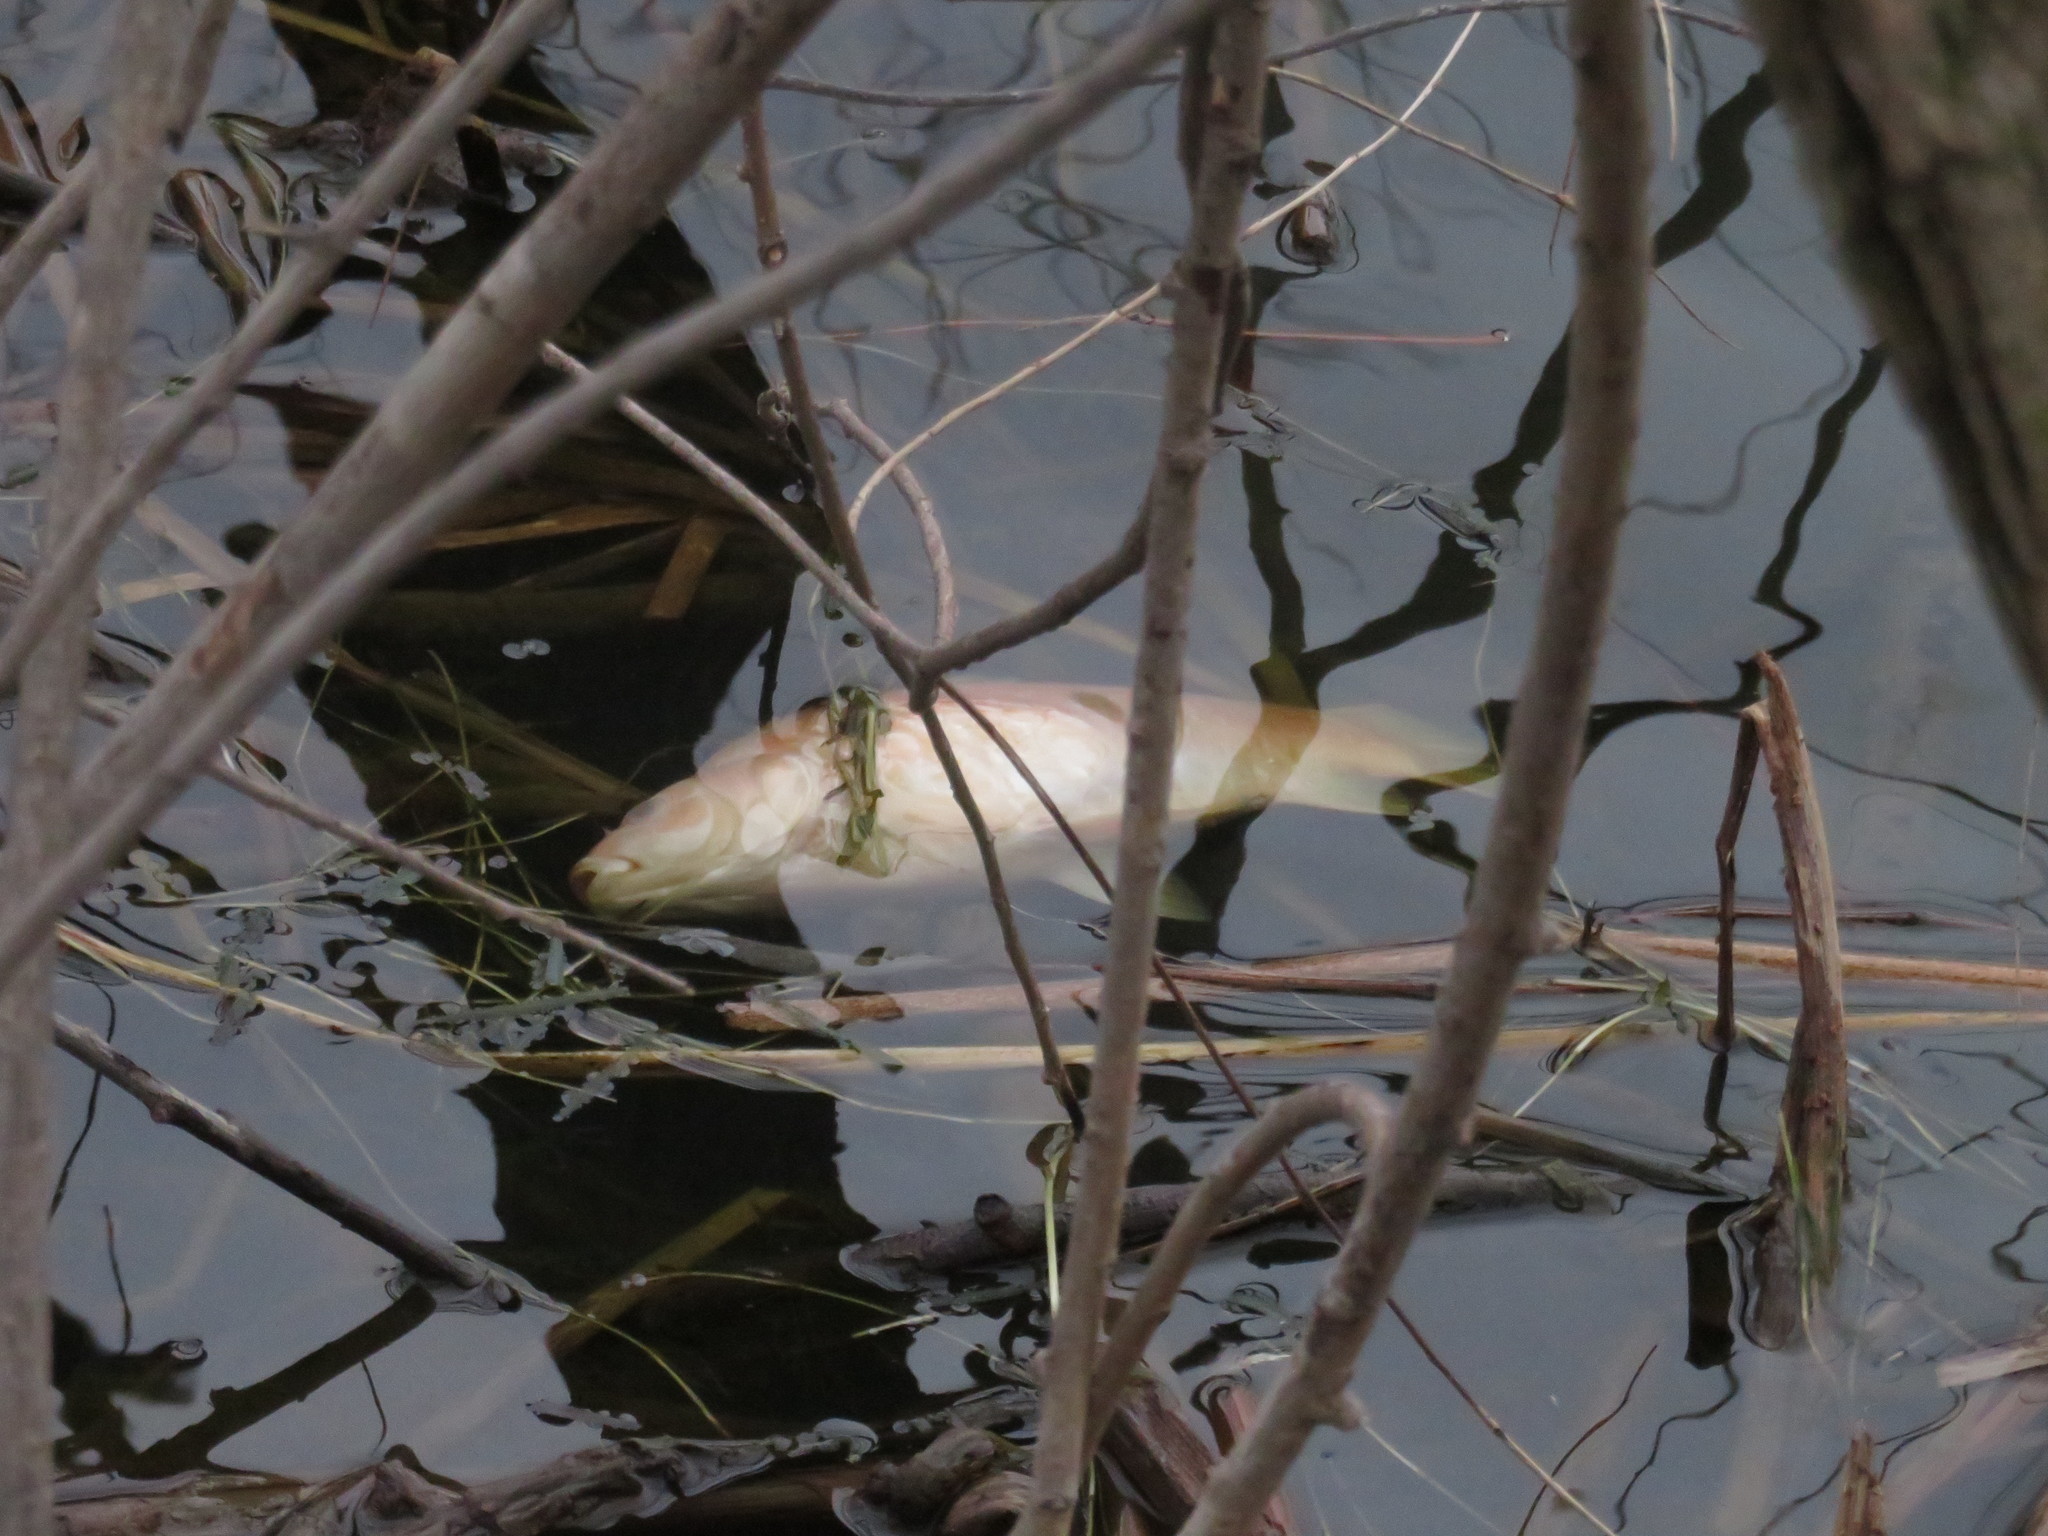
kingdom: Animalia
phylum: Chordata
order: Cypriniformes
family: Cyprinidae
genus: Carassius
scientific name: Carassius auratus
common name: Goldfish
